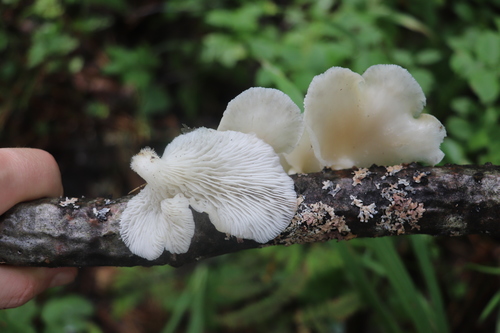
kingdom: Fungi
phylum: Basidiomycota
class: Agaricomycetes
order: Agaricales
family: Pleurotaceae
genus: Pleurotus
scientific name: Pleurotus pulmonarius
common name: Pale oyster
